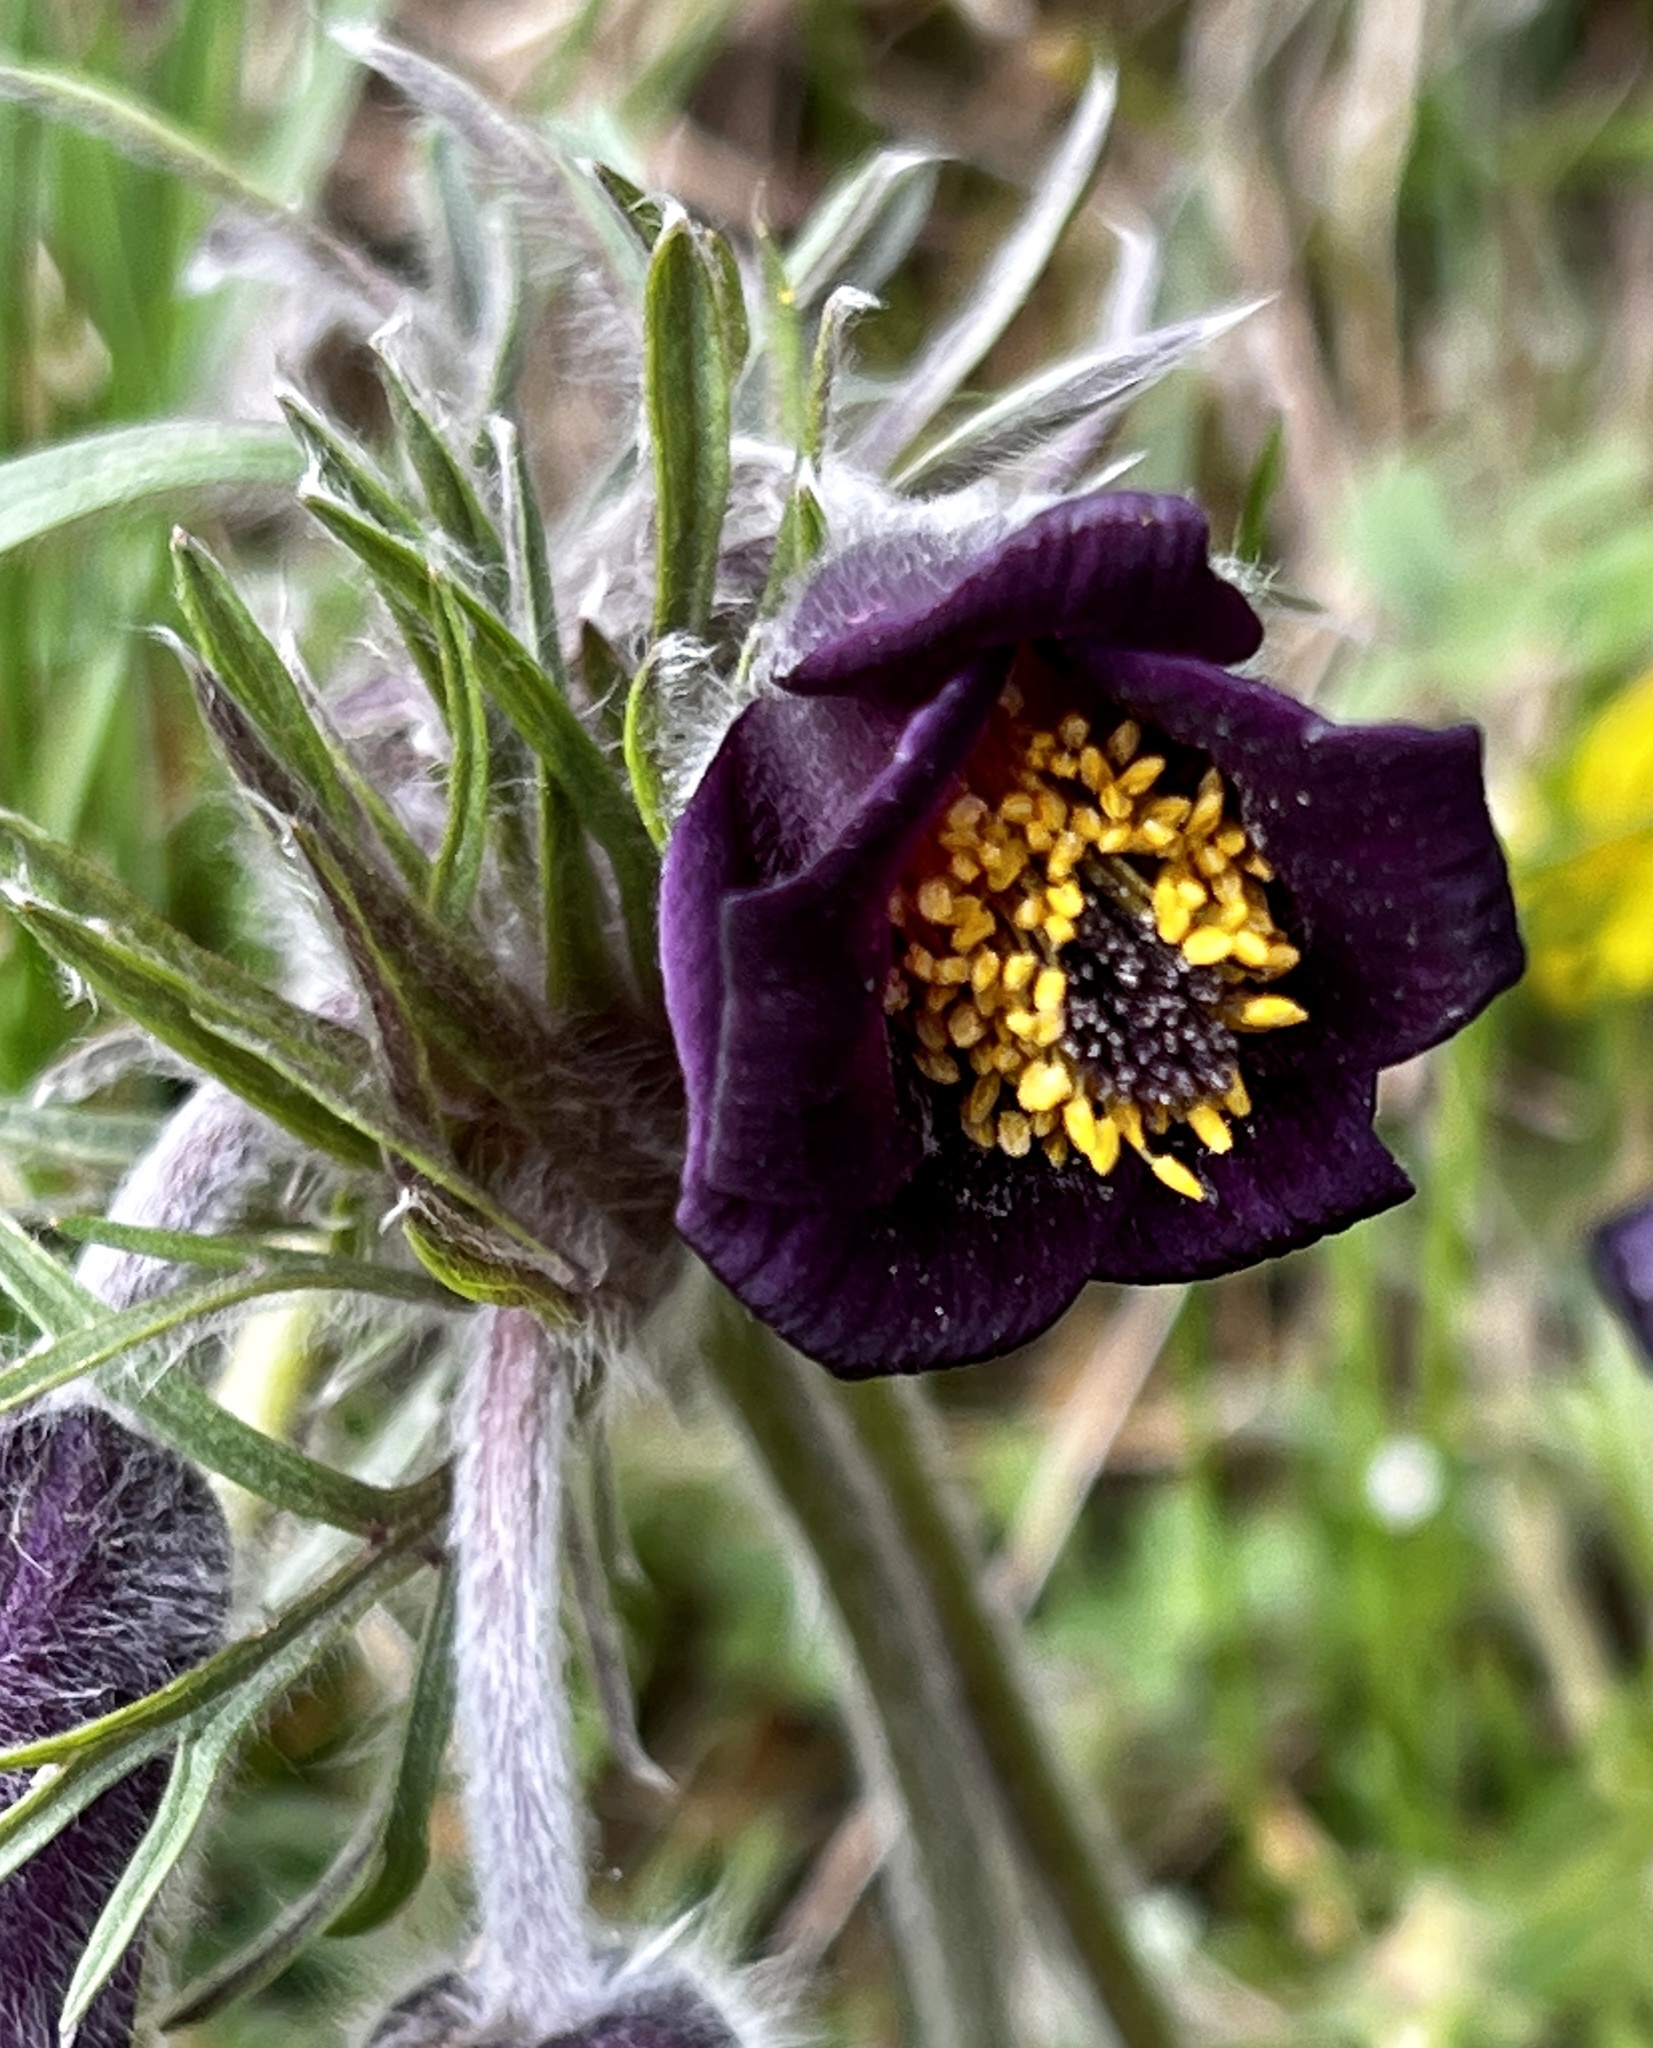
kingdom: Plantae
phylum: Tracheophyta
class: Magnoliopsida
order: Ranunculales
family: Ranunculaceae
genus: Pulsatilla
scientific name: Pulsatilla pratensis
